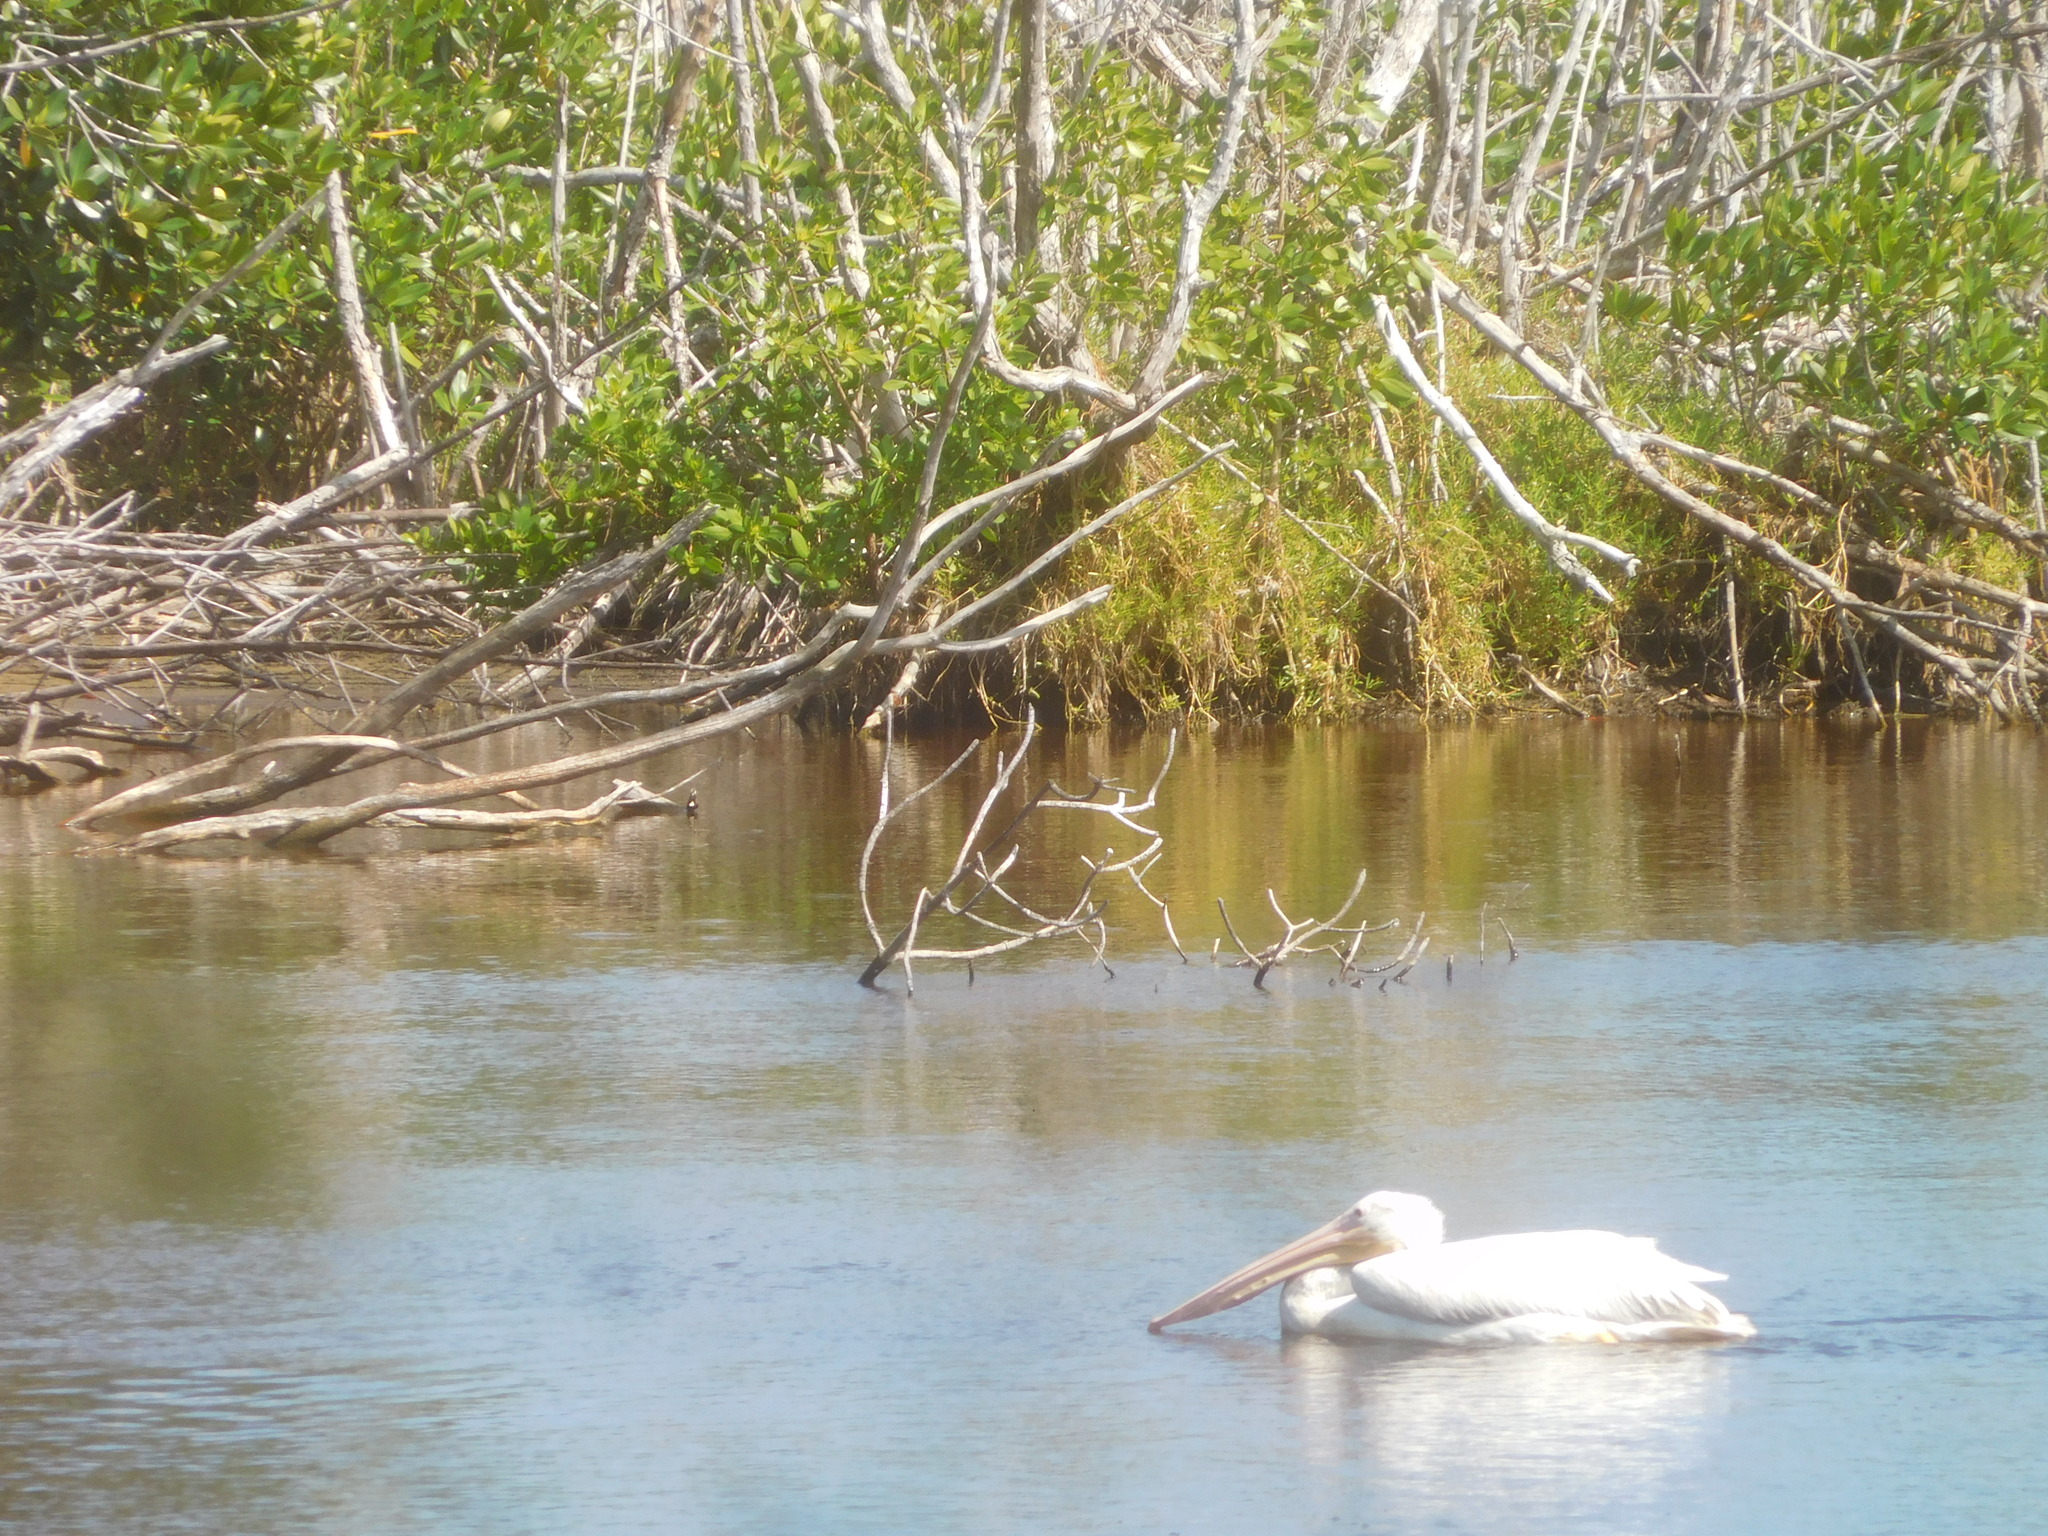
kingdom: Animalia
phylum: Chordata
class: Aves
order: Pelecaniformes
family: Pelecanidae
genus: Pelecanus
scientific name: Pelecanus erythrorhynchos
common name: American white pelican
